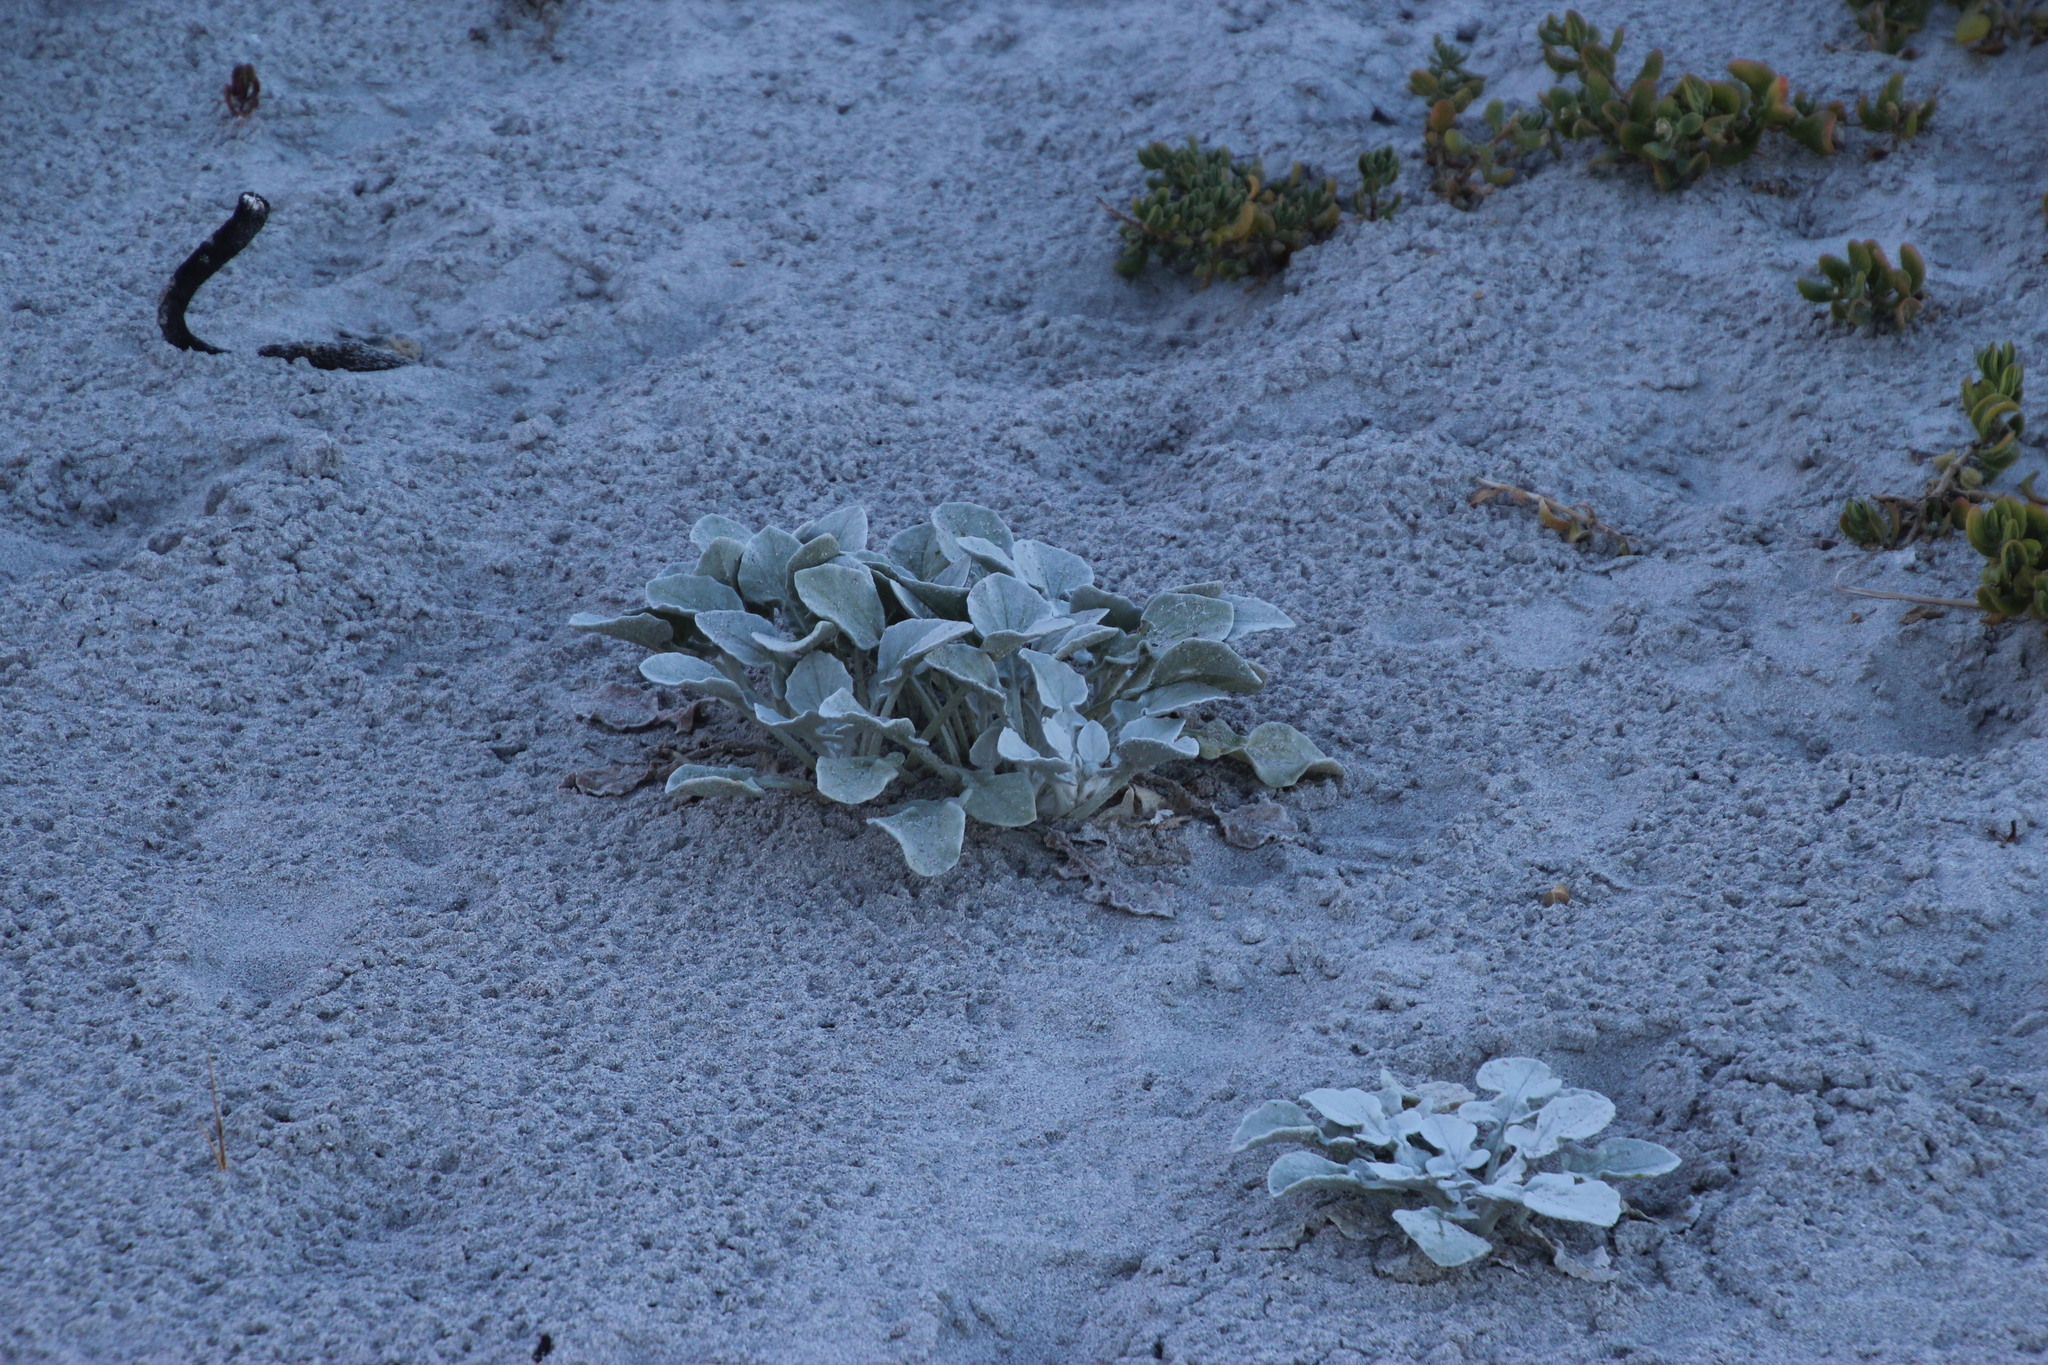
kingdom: Plantae
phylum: Tracheophyta
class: Magnoliopsida
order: Asterales
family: Asteraceae
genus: Arctotheca
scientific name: Arctotheca populifolia
